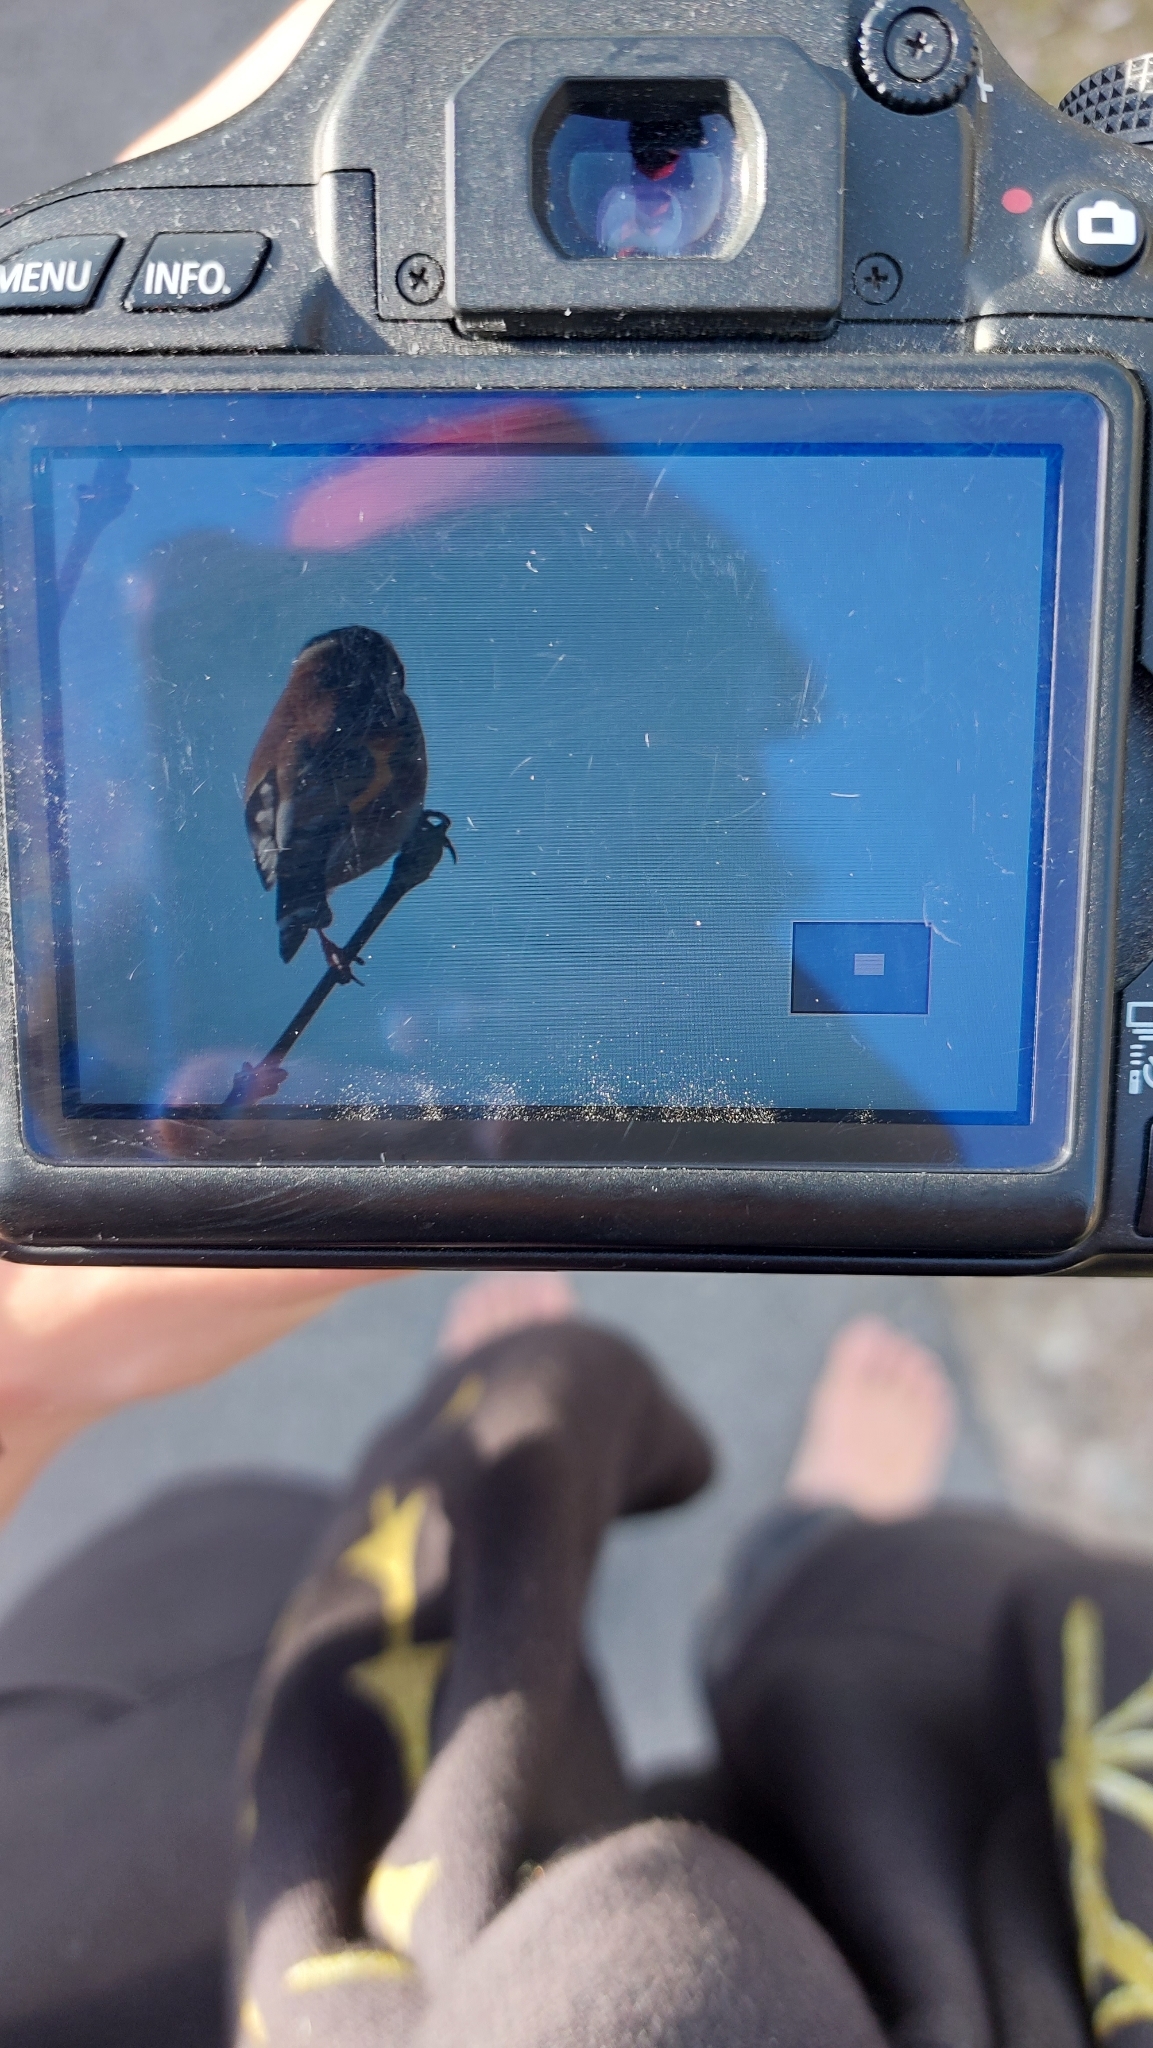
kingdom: Animalia
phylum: Chordata
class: Aves
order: Passeriformes
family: Fringillidae
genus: Carduelis
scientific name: Carduelis carduelis
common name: European goldfinch
